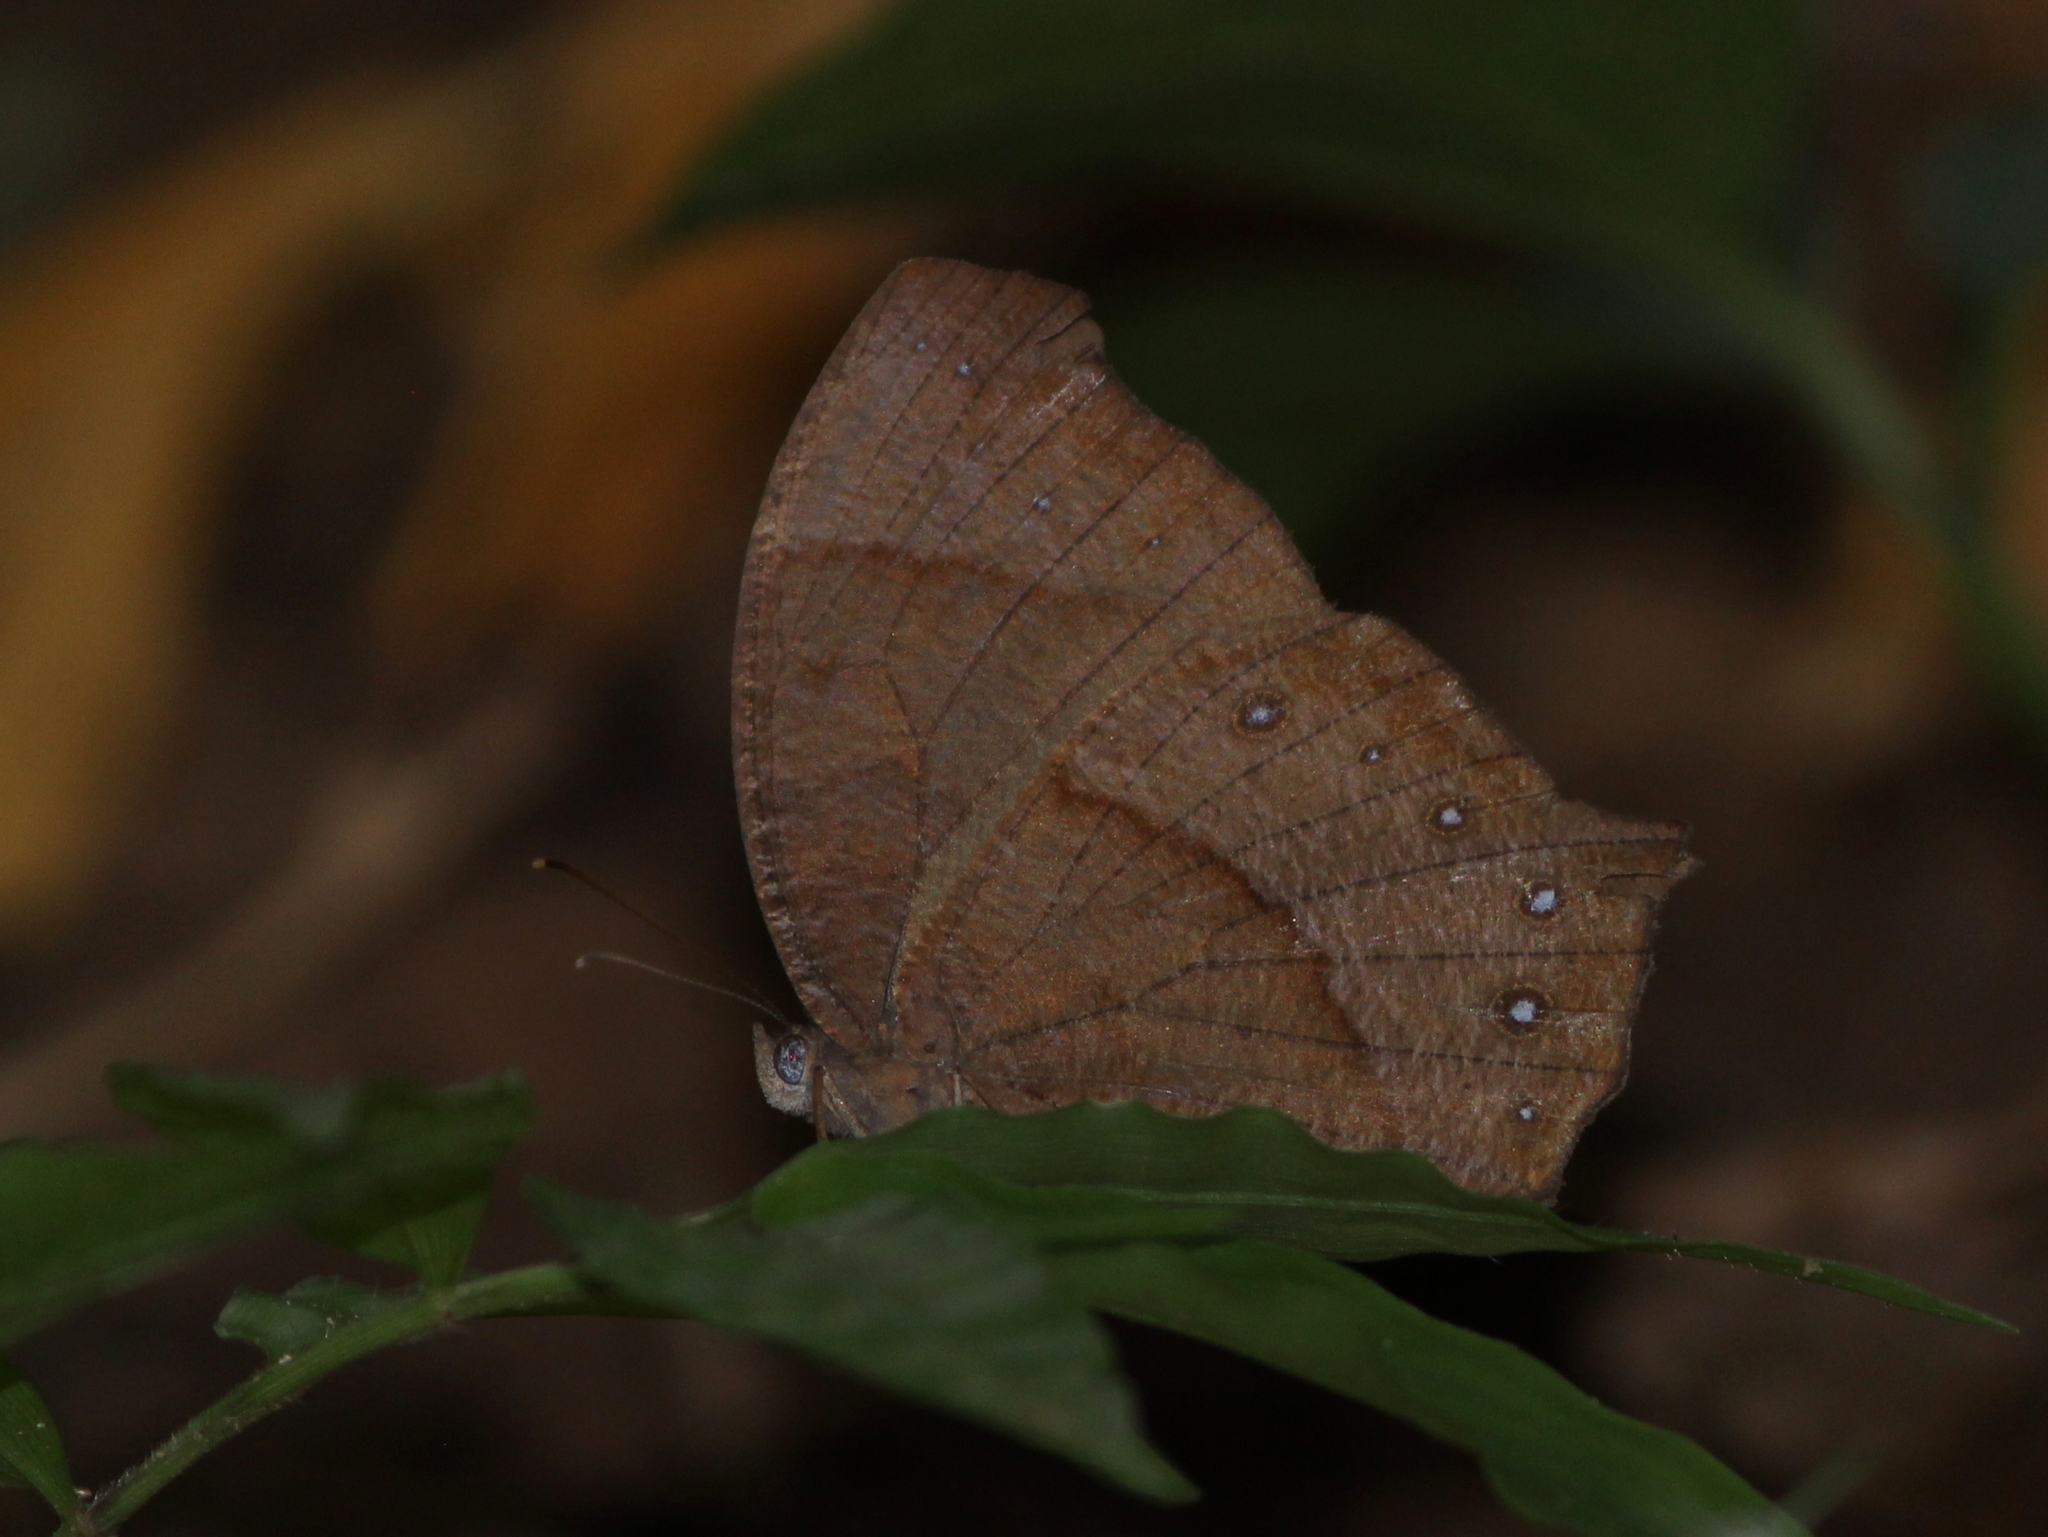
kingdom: Animalia
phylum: Arthropoda
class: Insecta
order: Lepidoptera
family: Nymphalidae
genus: Melanitis
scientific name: Melanitis phedima
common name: Dark evening brown
